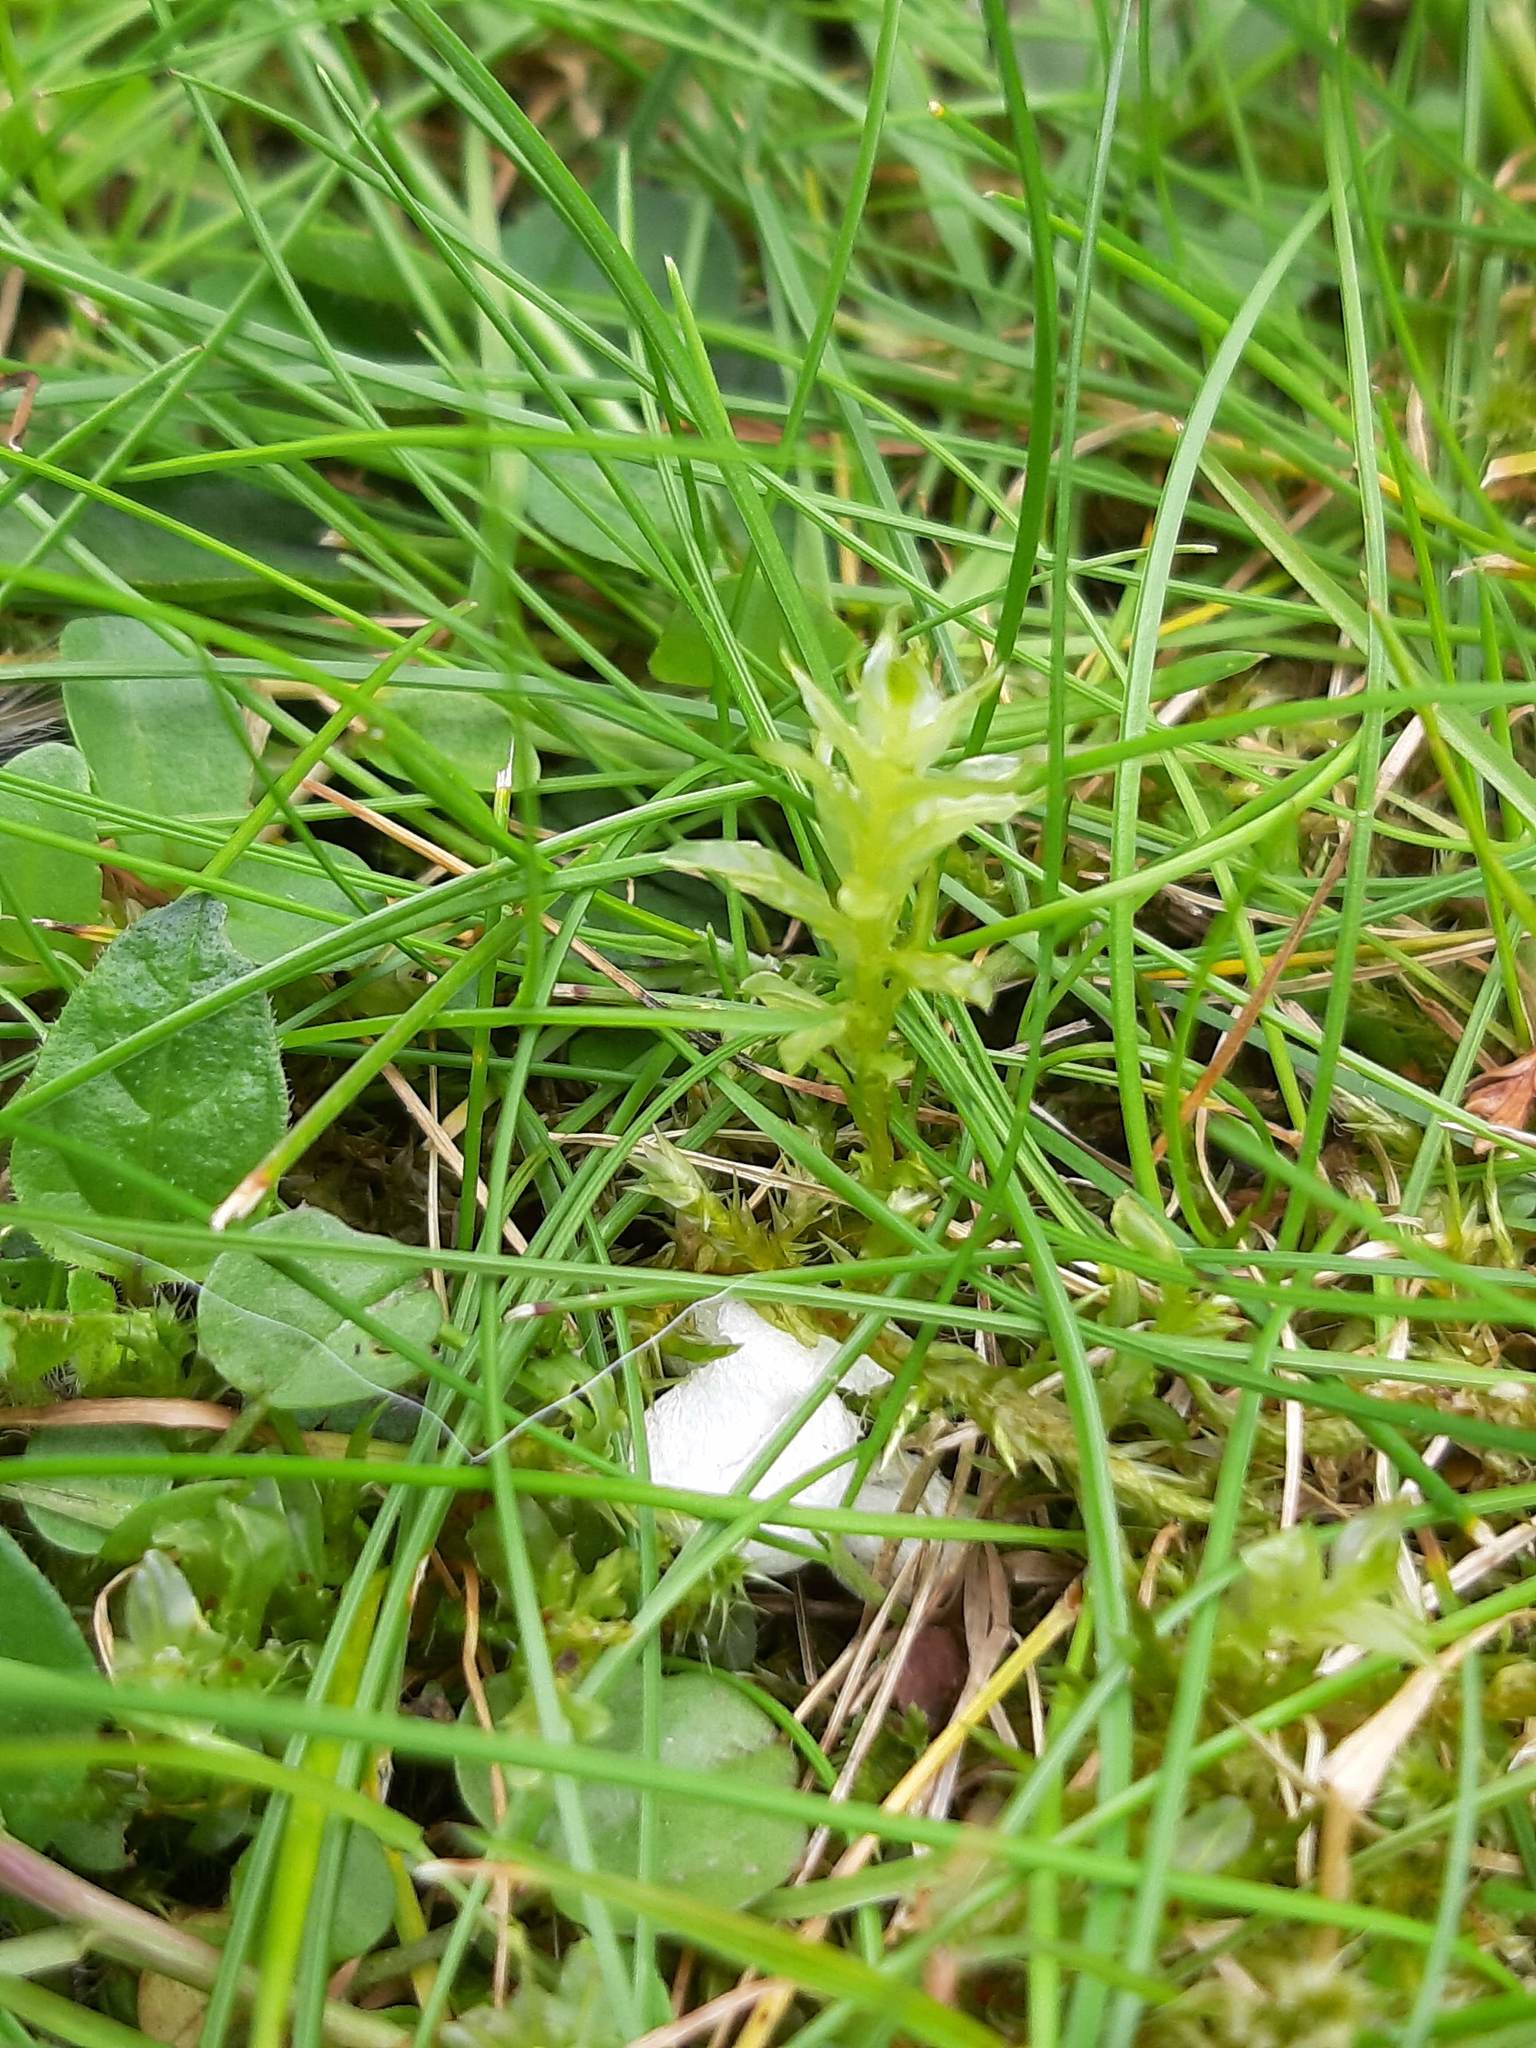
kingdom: Plantae
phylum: Bryophyta
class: Bryopsida
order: Bryales
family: Mniaceae
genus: Plagiomnium
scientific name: Plagiomnium undulatum
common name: Hart's-tongue thyme-moss
